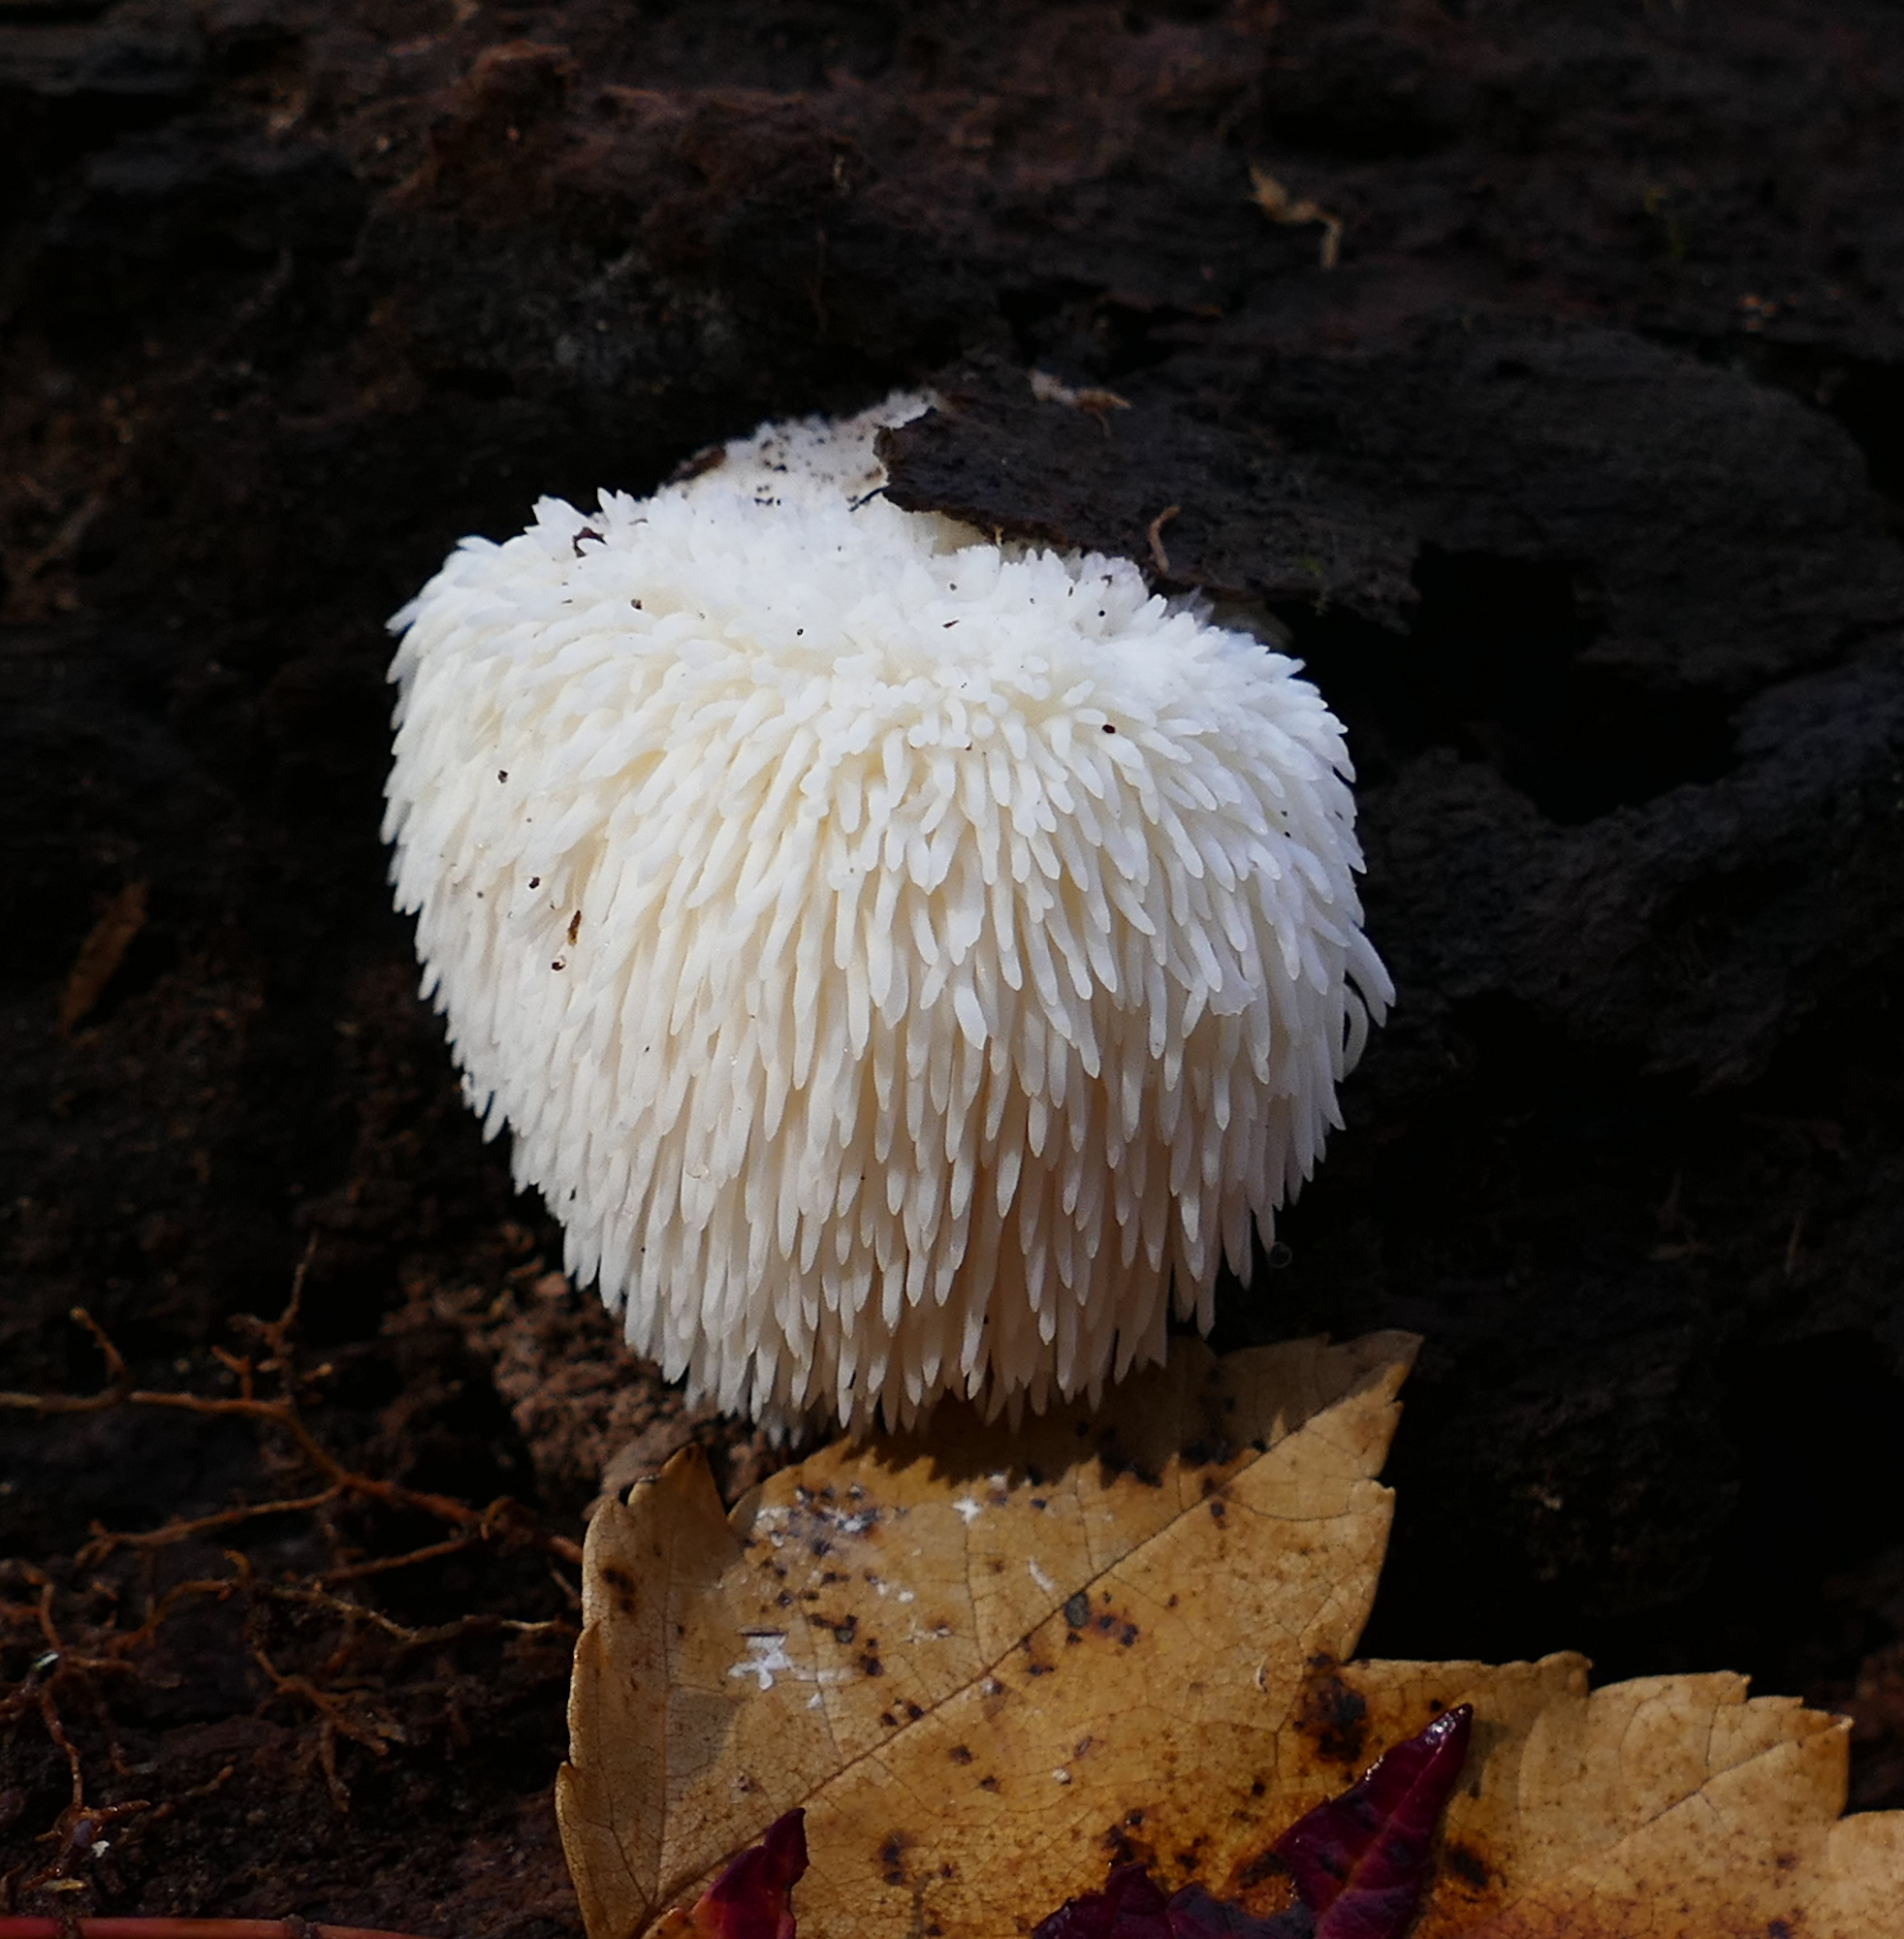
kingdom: Fungi
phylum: Basidiomycota
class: Agaricomycetes
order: Russulales
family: Hericiaceae
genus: Hericium
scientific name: Hericium erinaceus
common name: Bearded tooth
